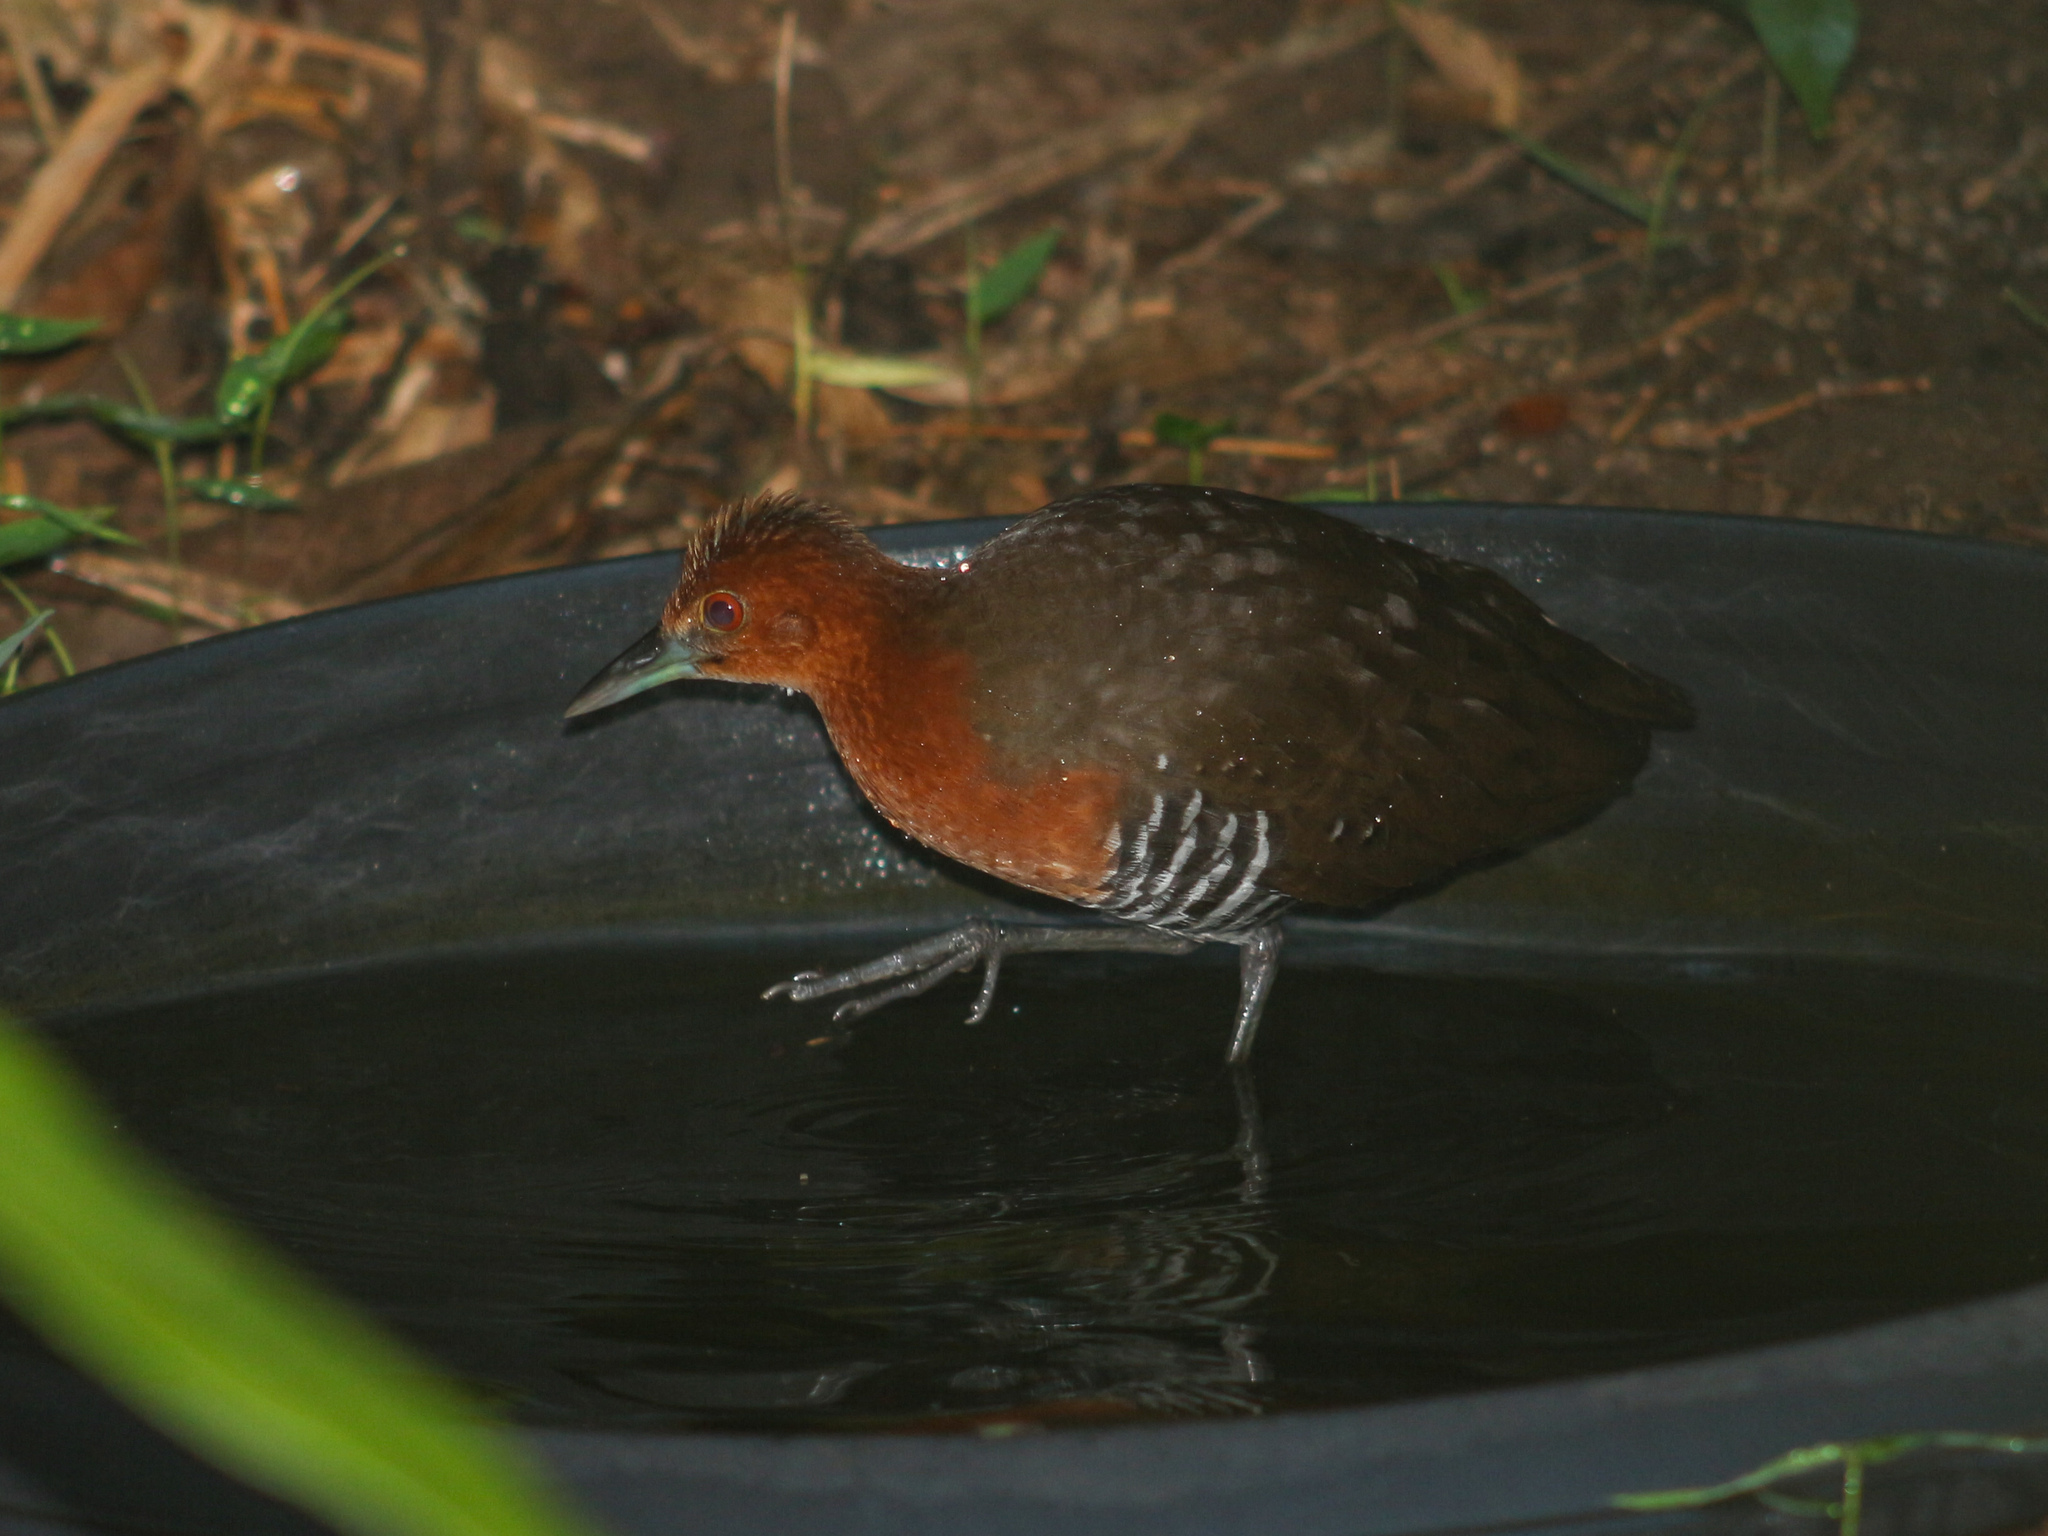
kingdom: Animalia
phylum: Chordata
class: Aves
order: Gruiformes
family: Rallidae
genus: Rallina
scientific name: Rallina eurizonoides
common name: Slaty-legged crake
